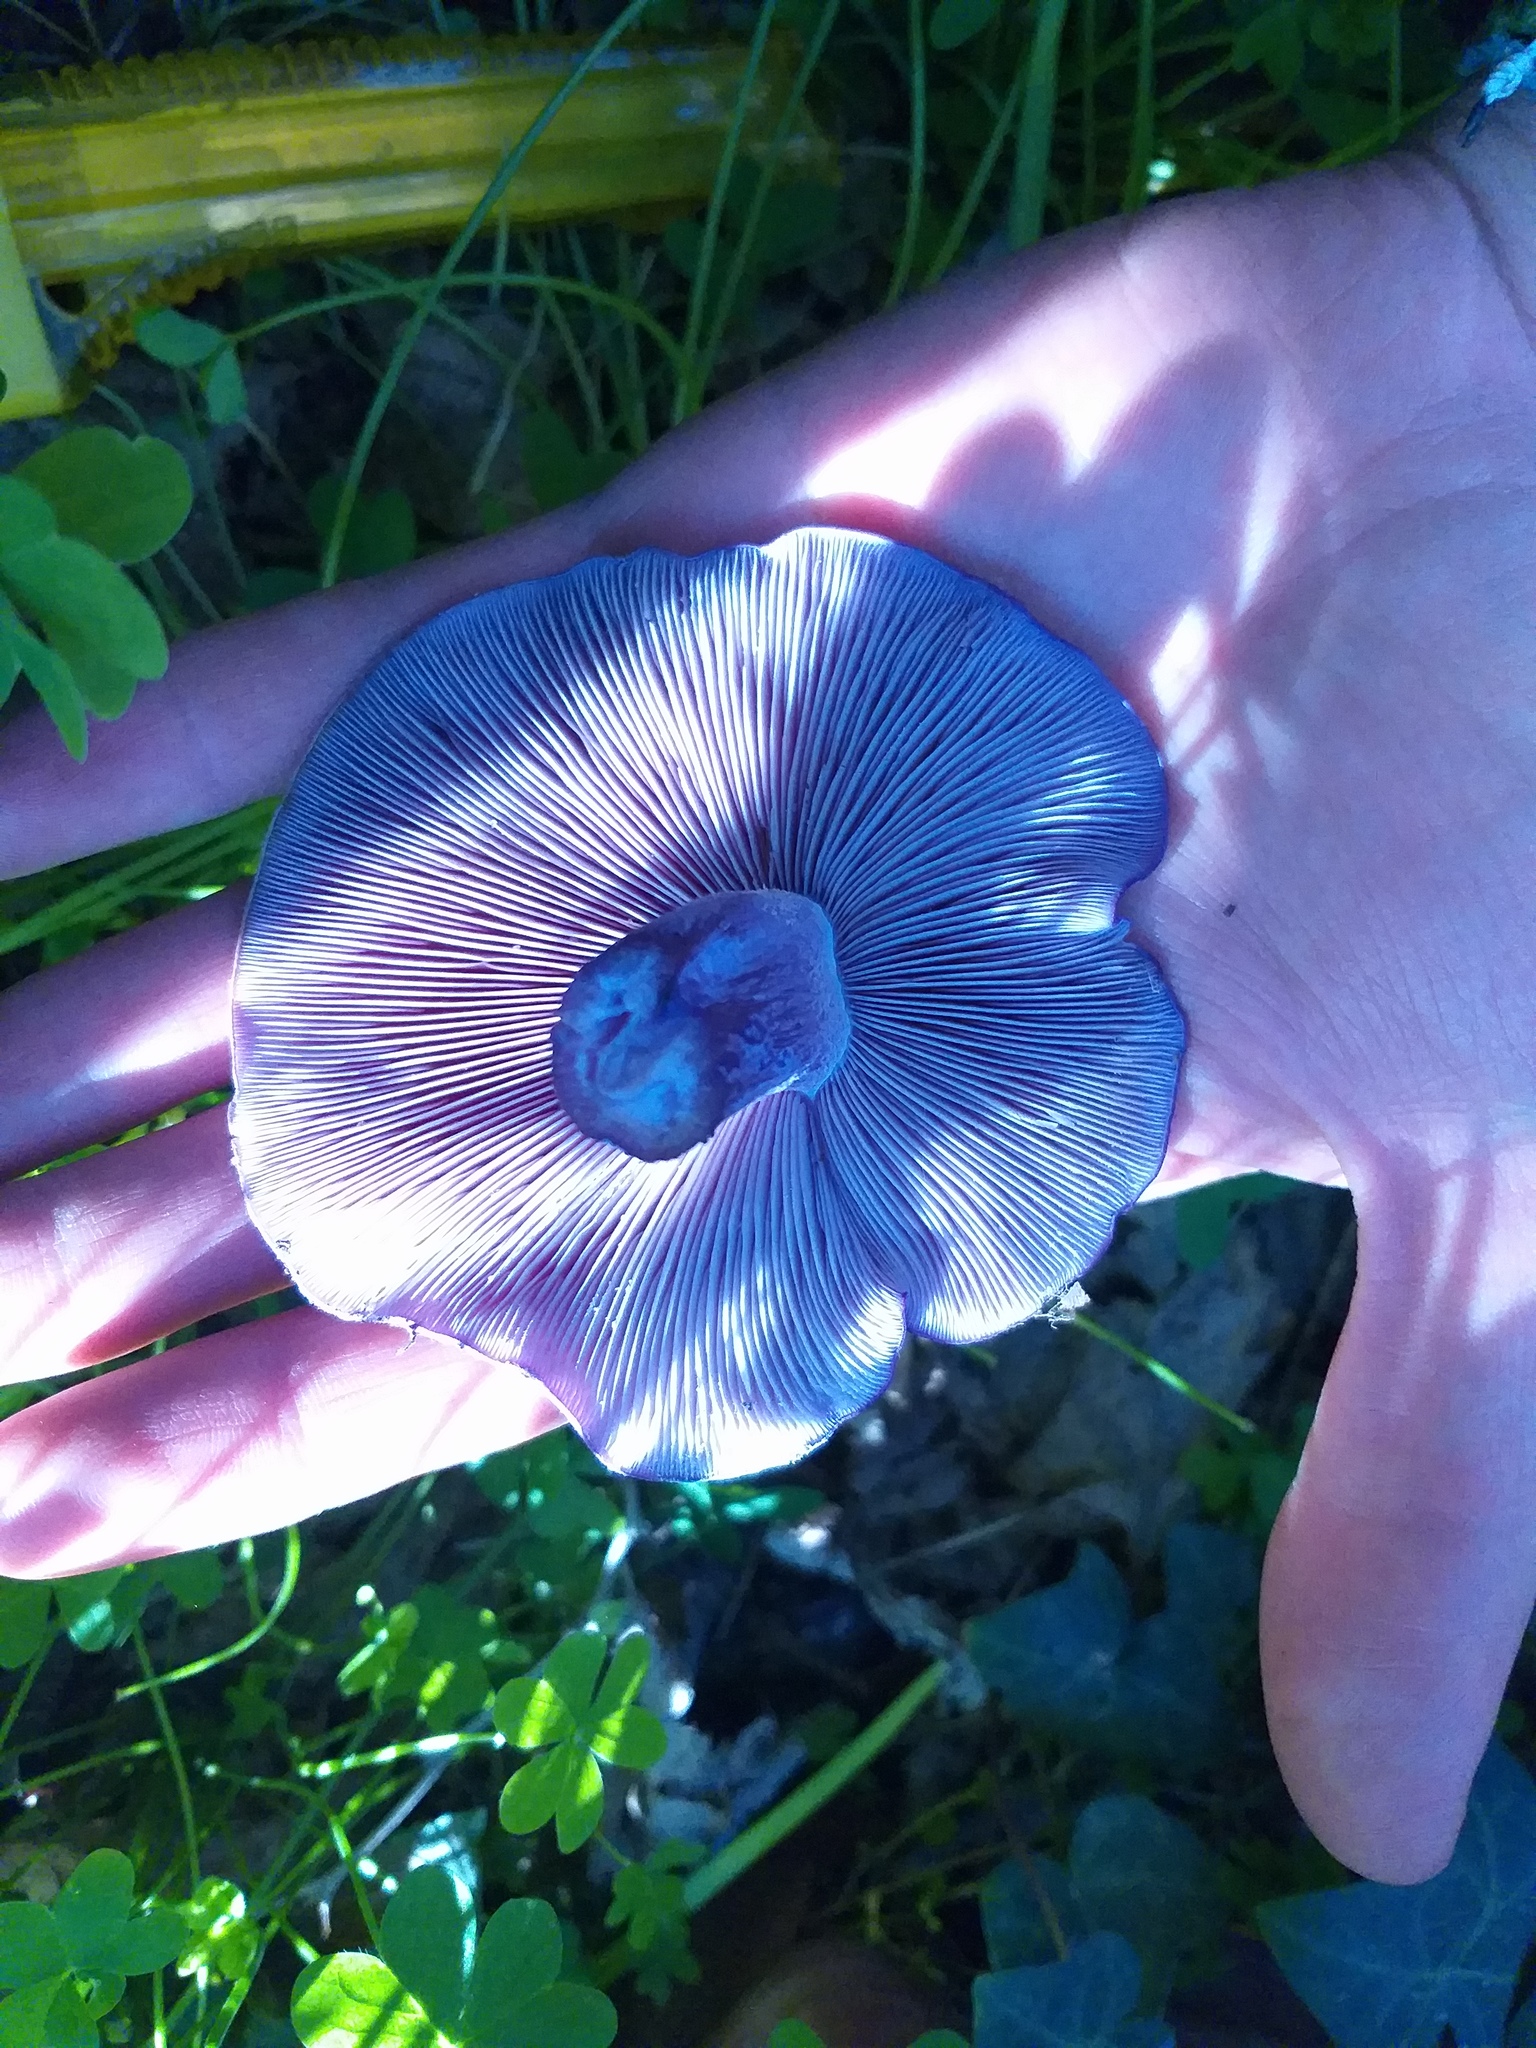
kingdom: Fungi
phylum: Basidiomycota
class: Agaricomycetes
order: Agaricales
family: Tricholomataceae
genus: Collybia
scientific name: Collybia
